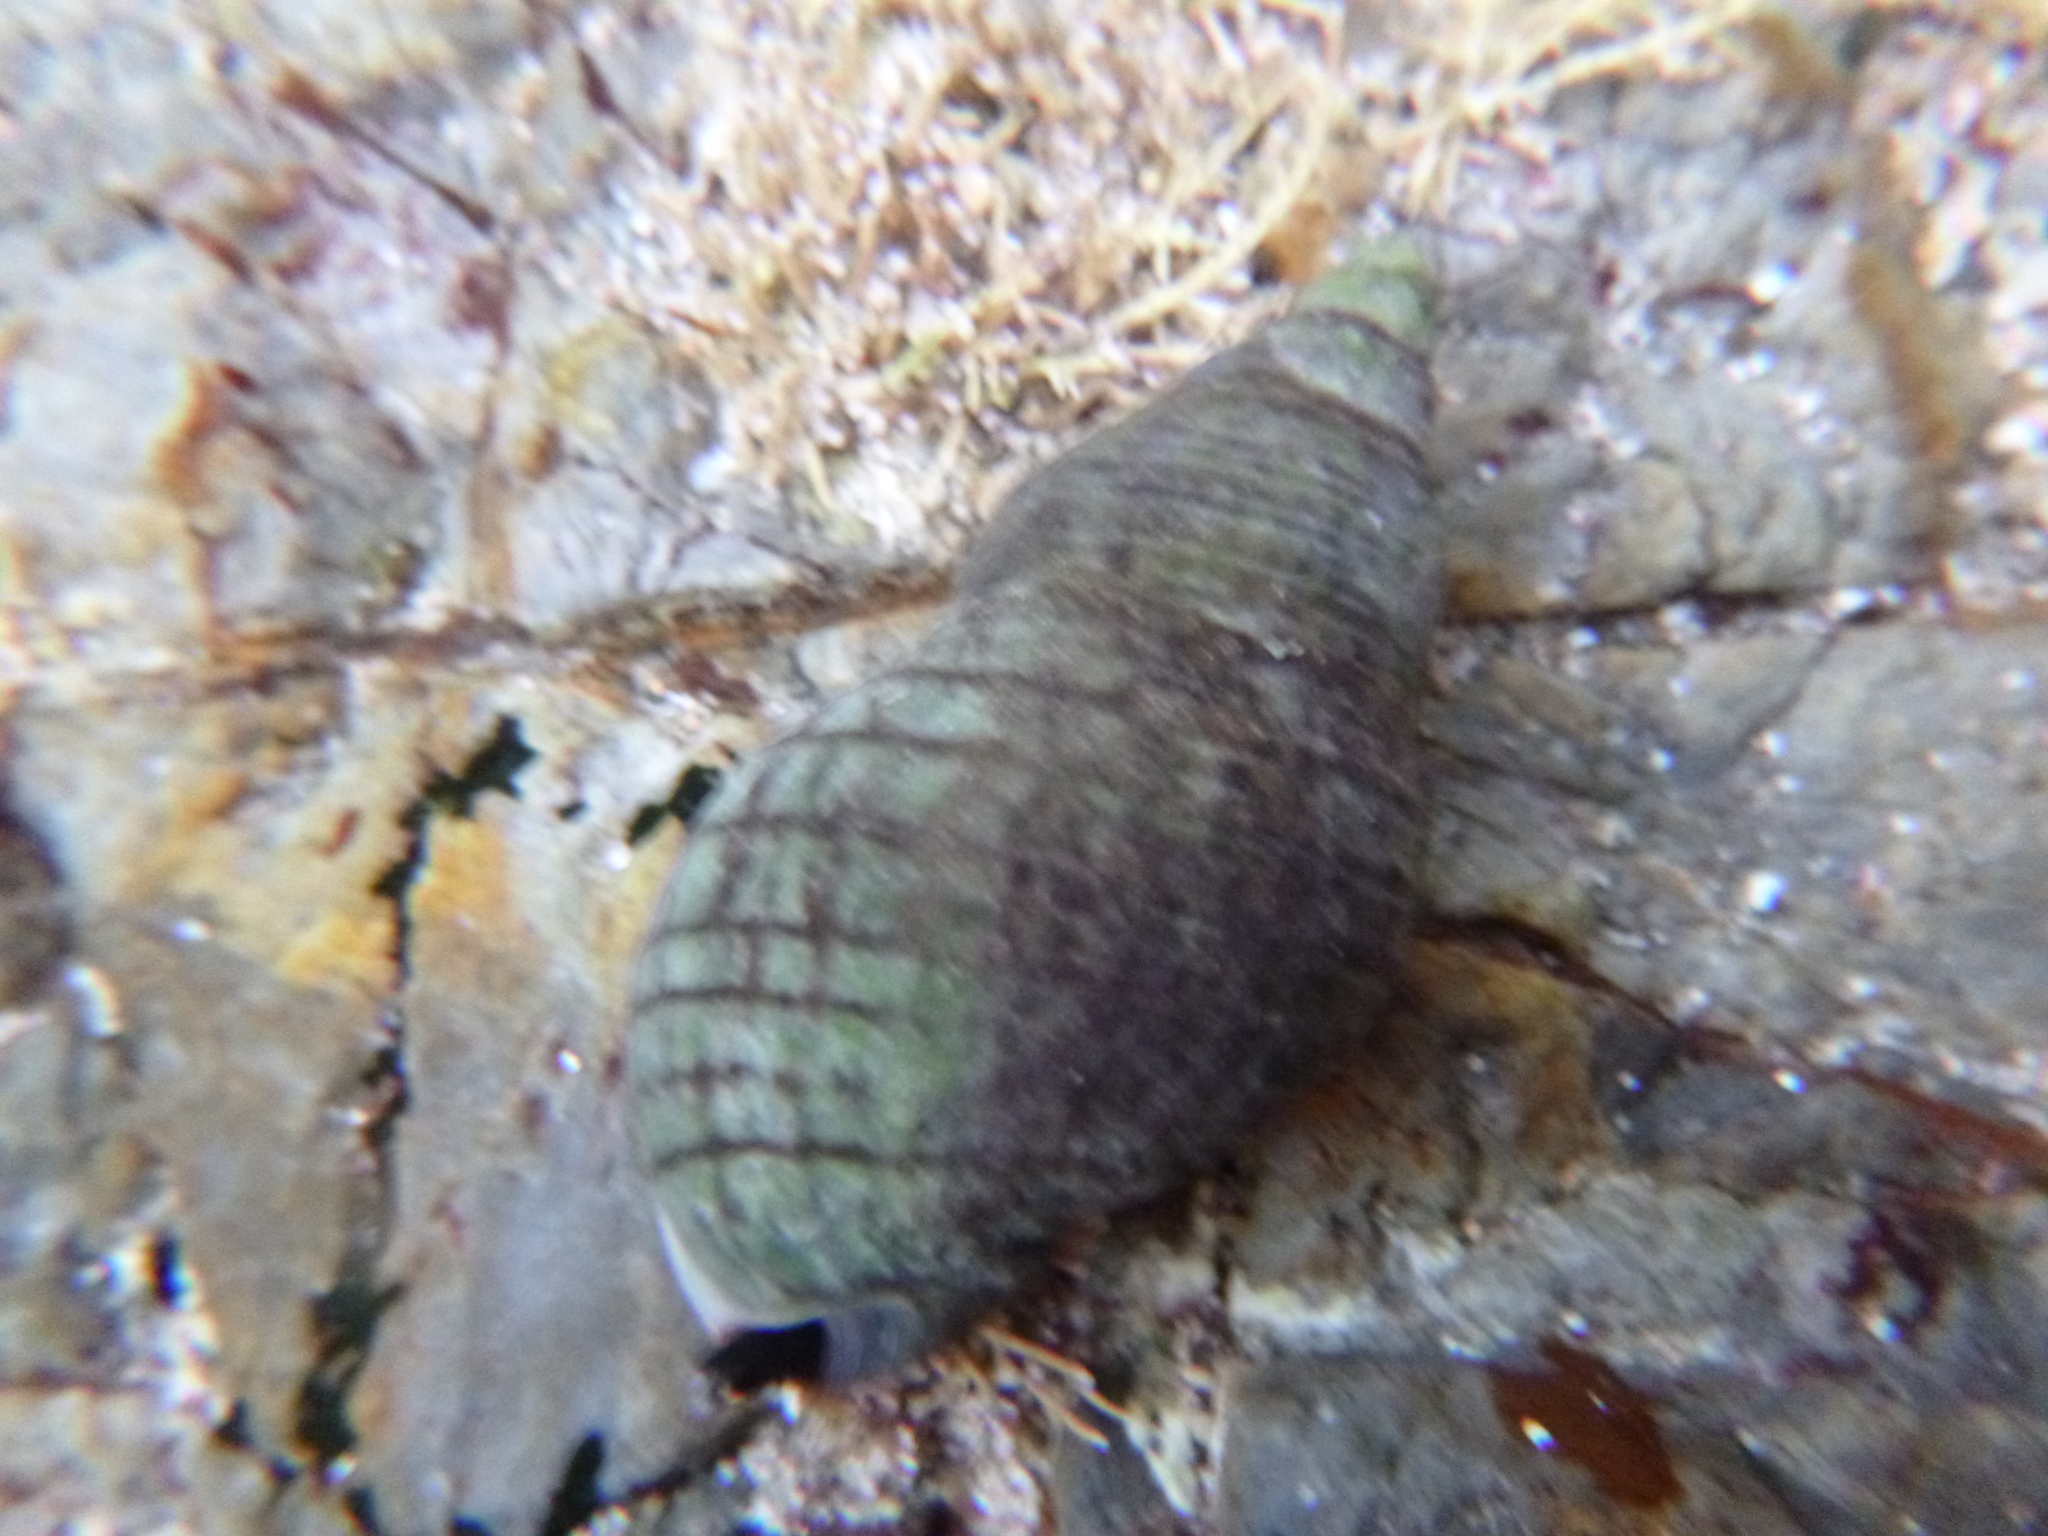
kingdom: Animalia
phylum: Mollusca
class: Gastropoda
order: Neogastropoda
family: Cominellidae
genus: Cominella
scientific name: Cominella virgata
